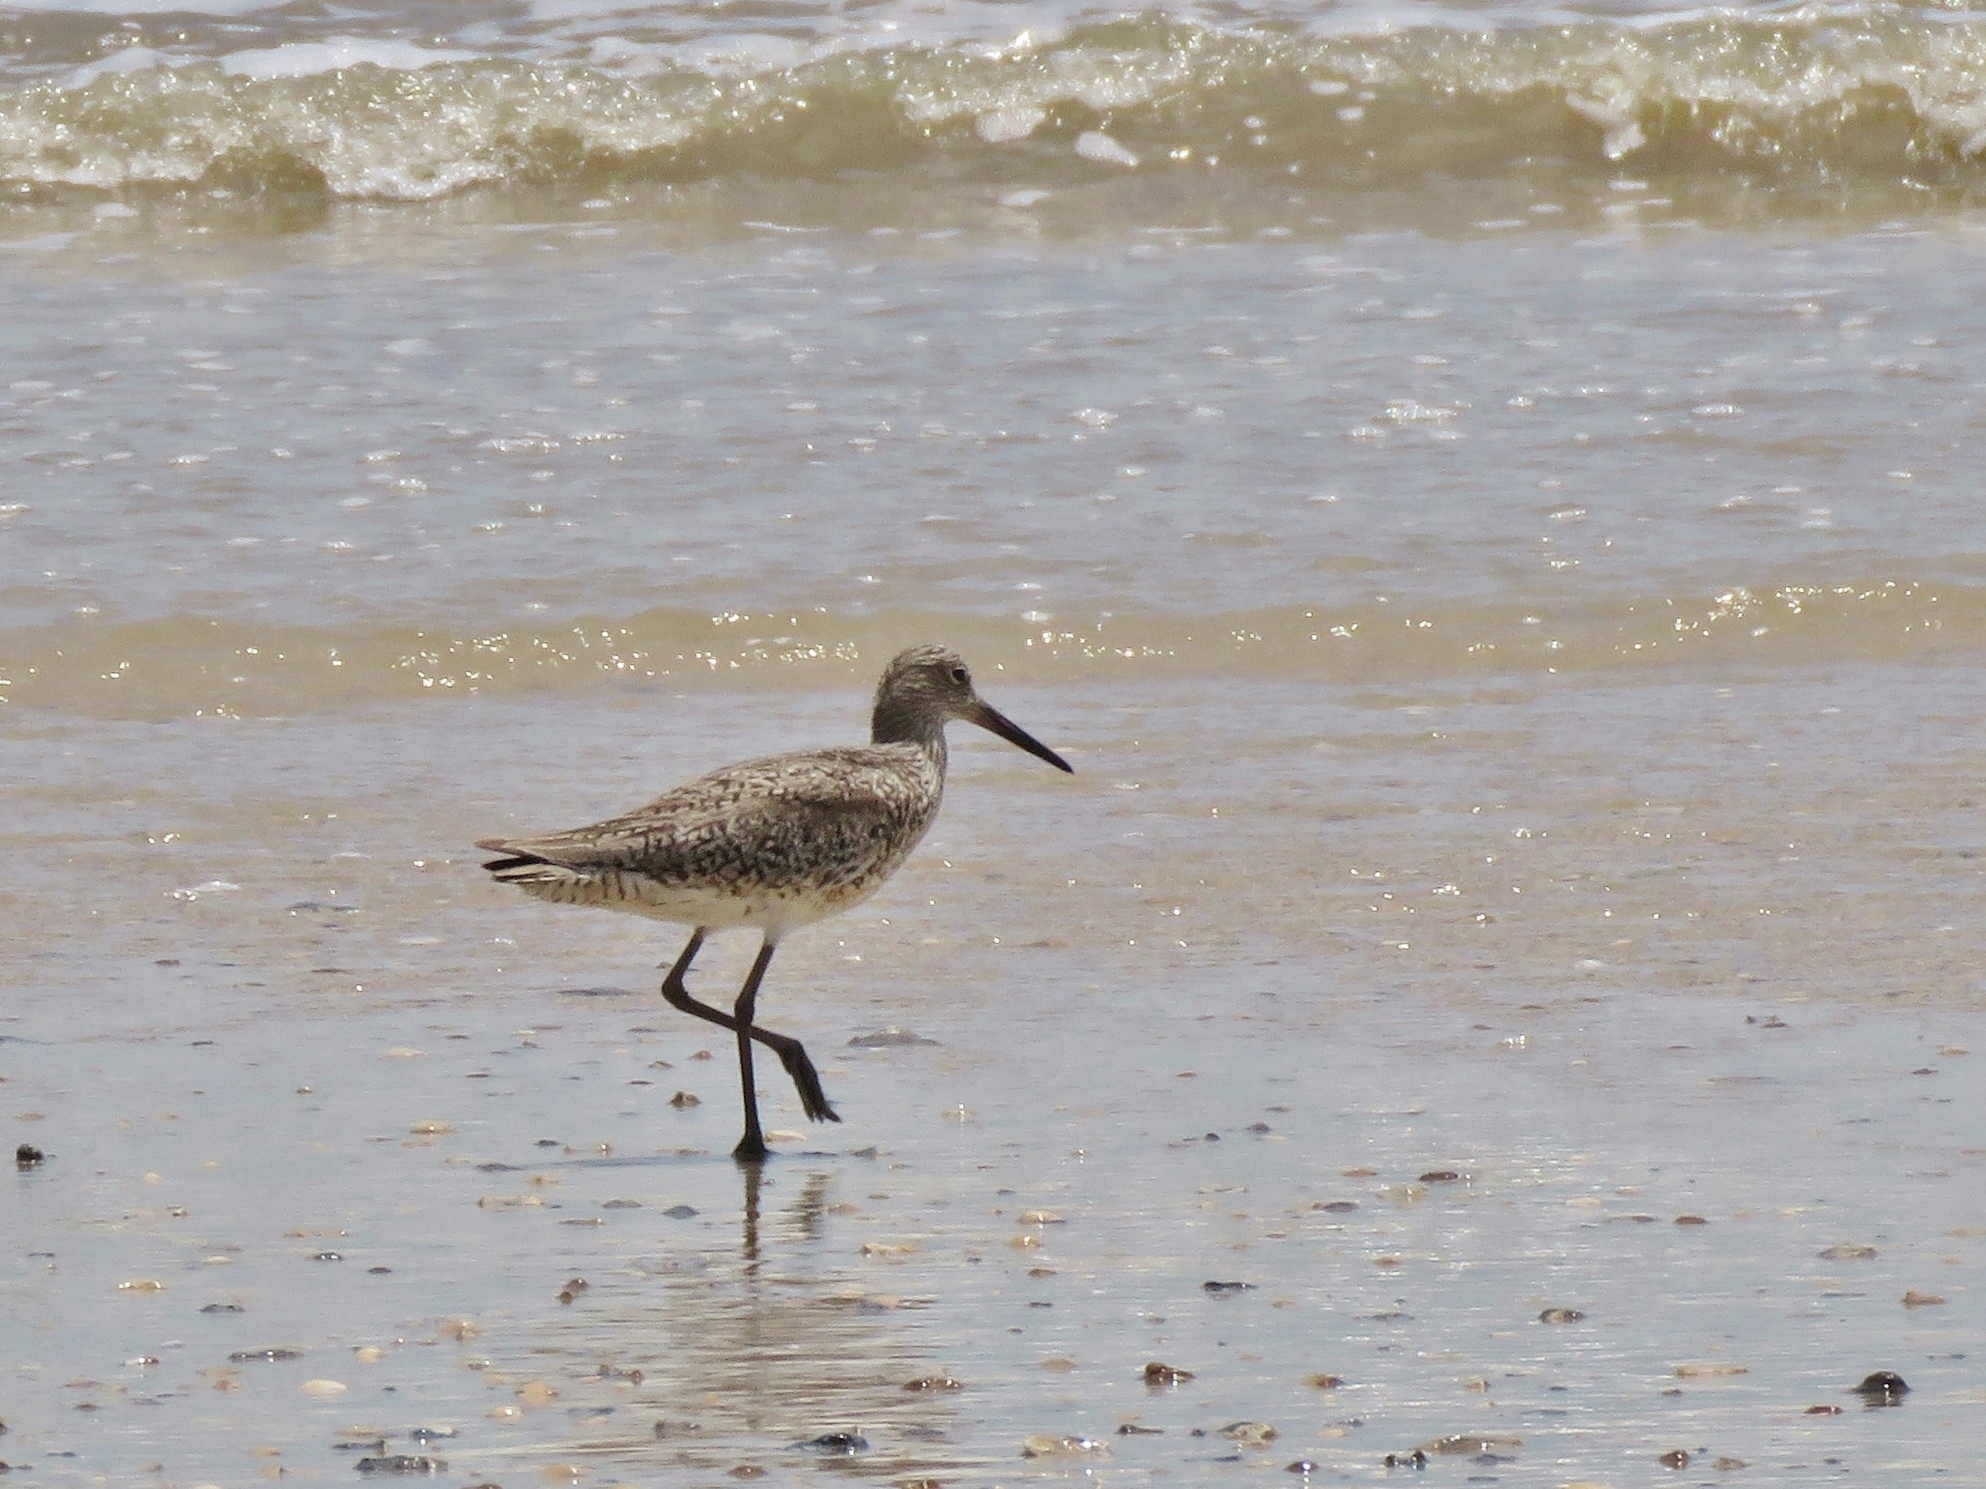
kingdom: Animalia
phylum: Chordata
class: Aves
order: Charadriiformes
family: Scolopacidae
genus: Tringa
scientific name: Tringa semipalmata
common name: Willet
